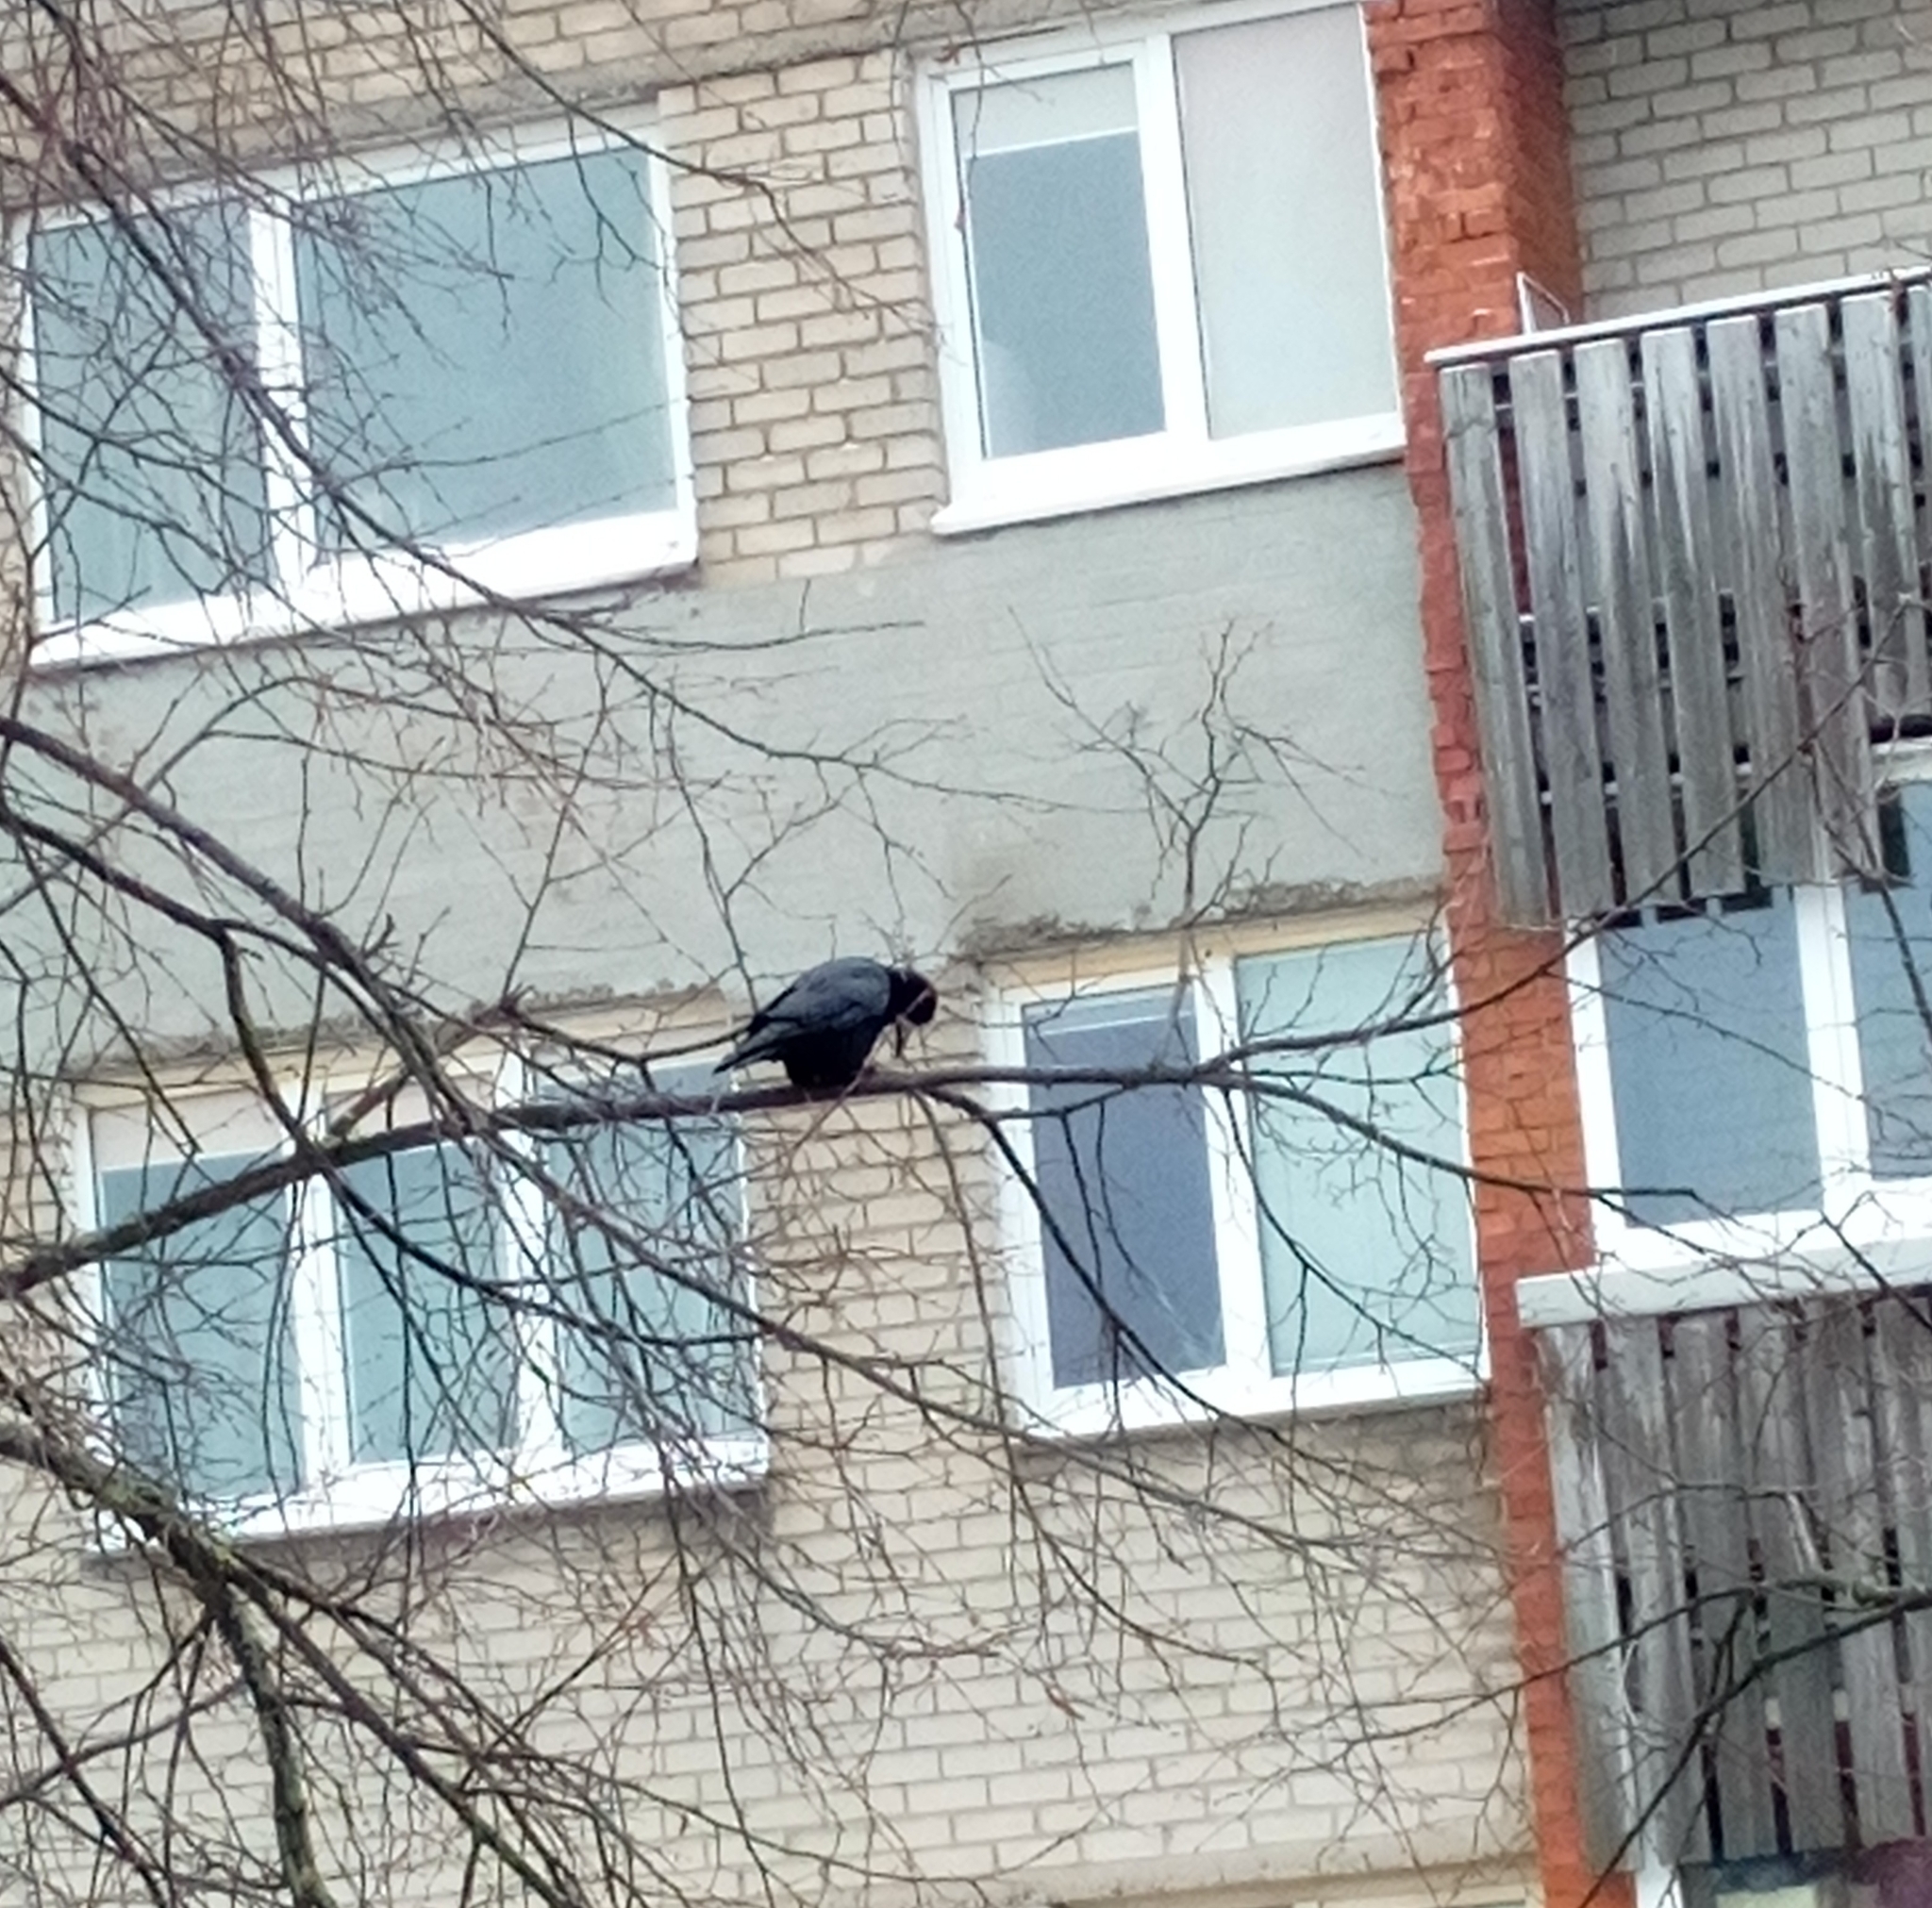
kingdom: Animalia
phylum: Chordata
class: Aves
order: Passeriformes
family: Corvidae
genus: Corvus
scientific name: Corvus frugilegus
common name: Rook
